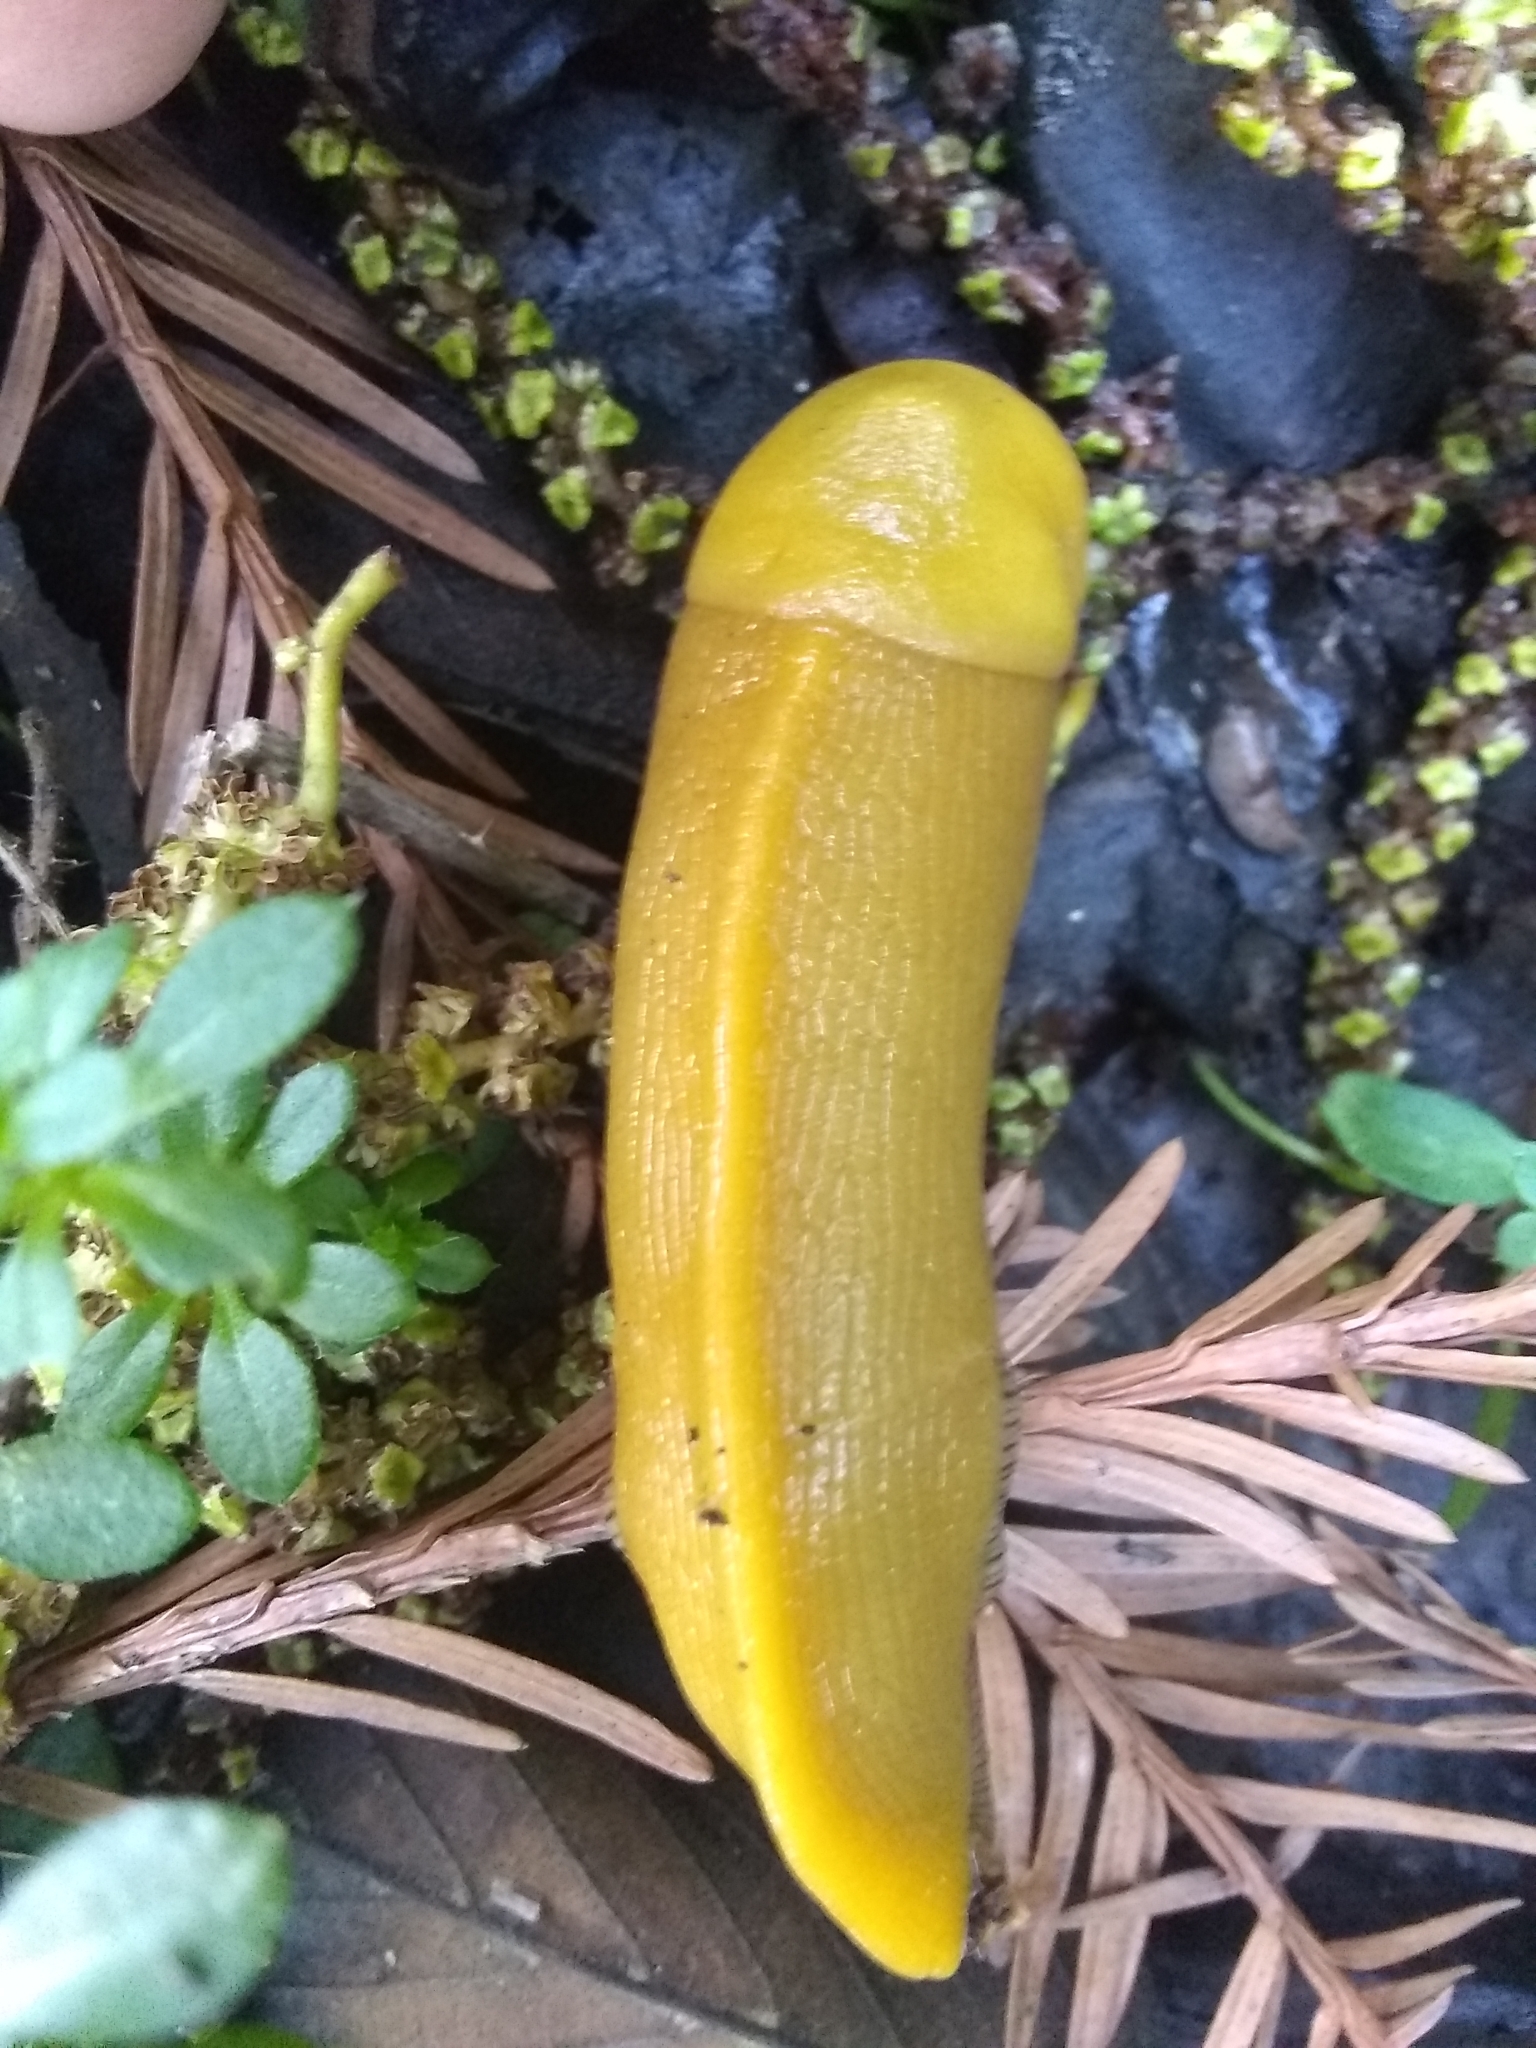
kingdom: Animalia
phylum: Mollusca
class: Gastropoda
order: Stylommatophora
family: Ariolimacidae
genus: Ariolimax
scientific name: Ariolimax buttoni
